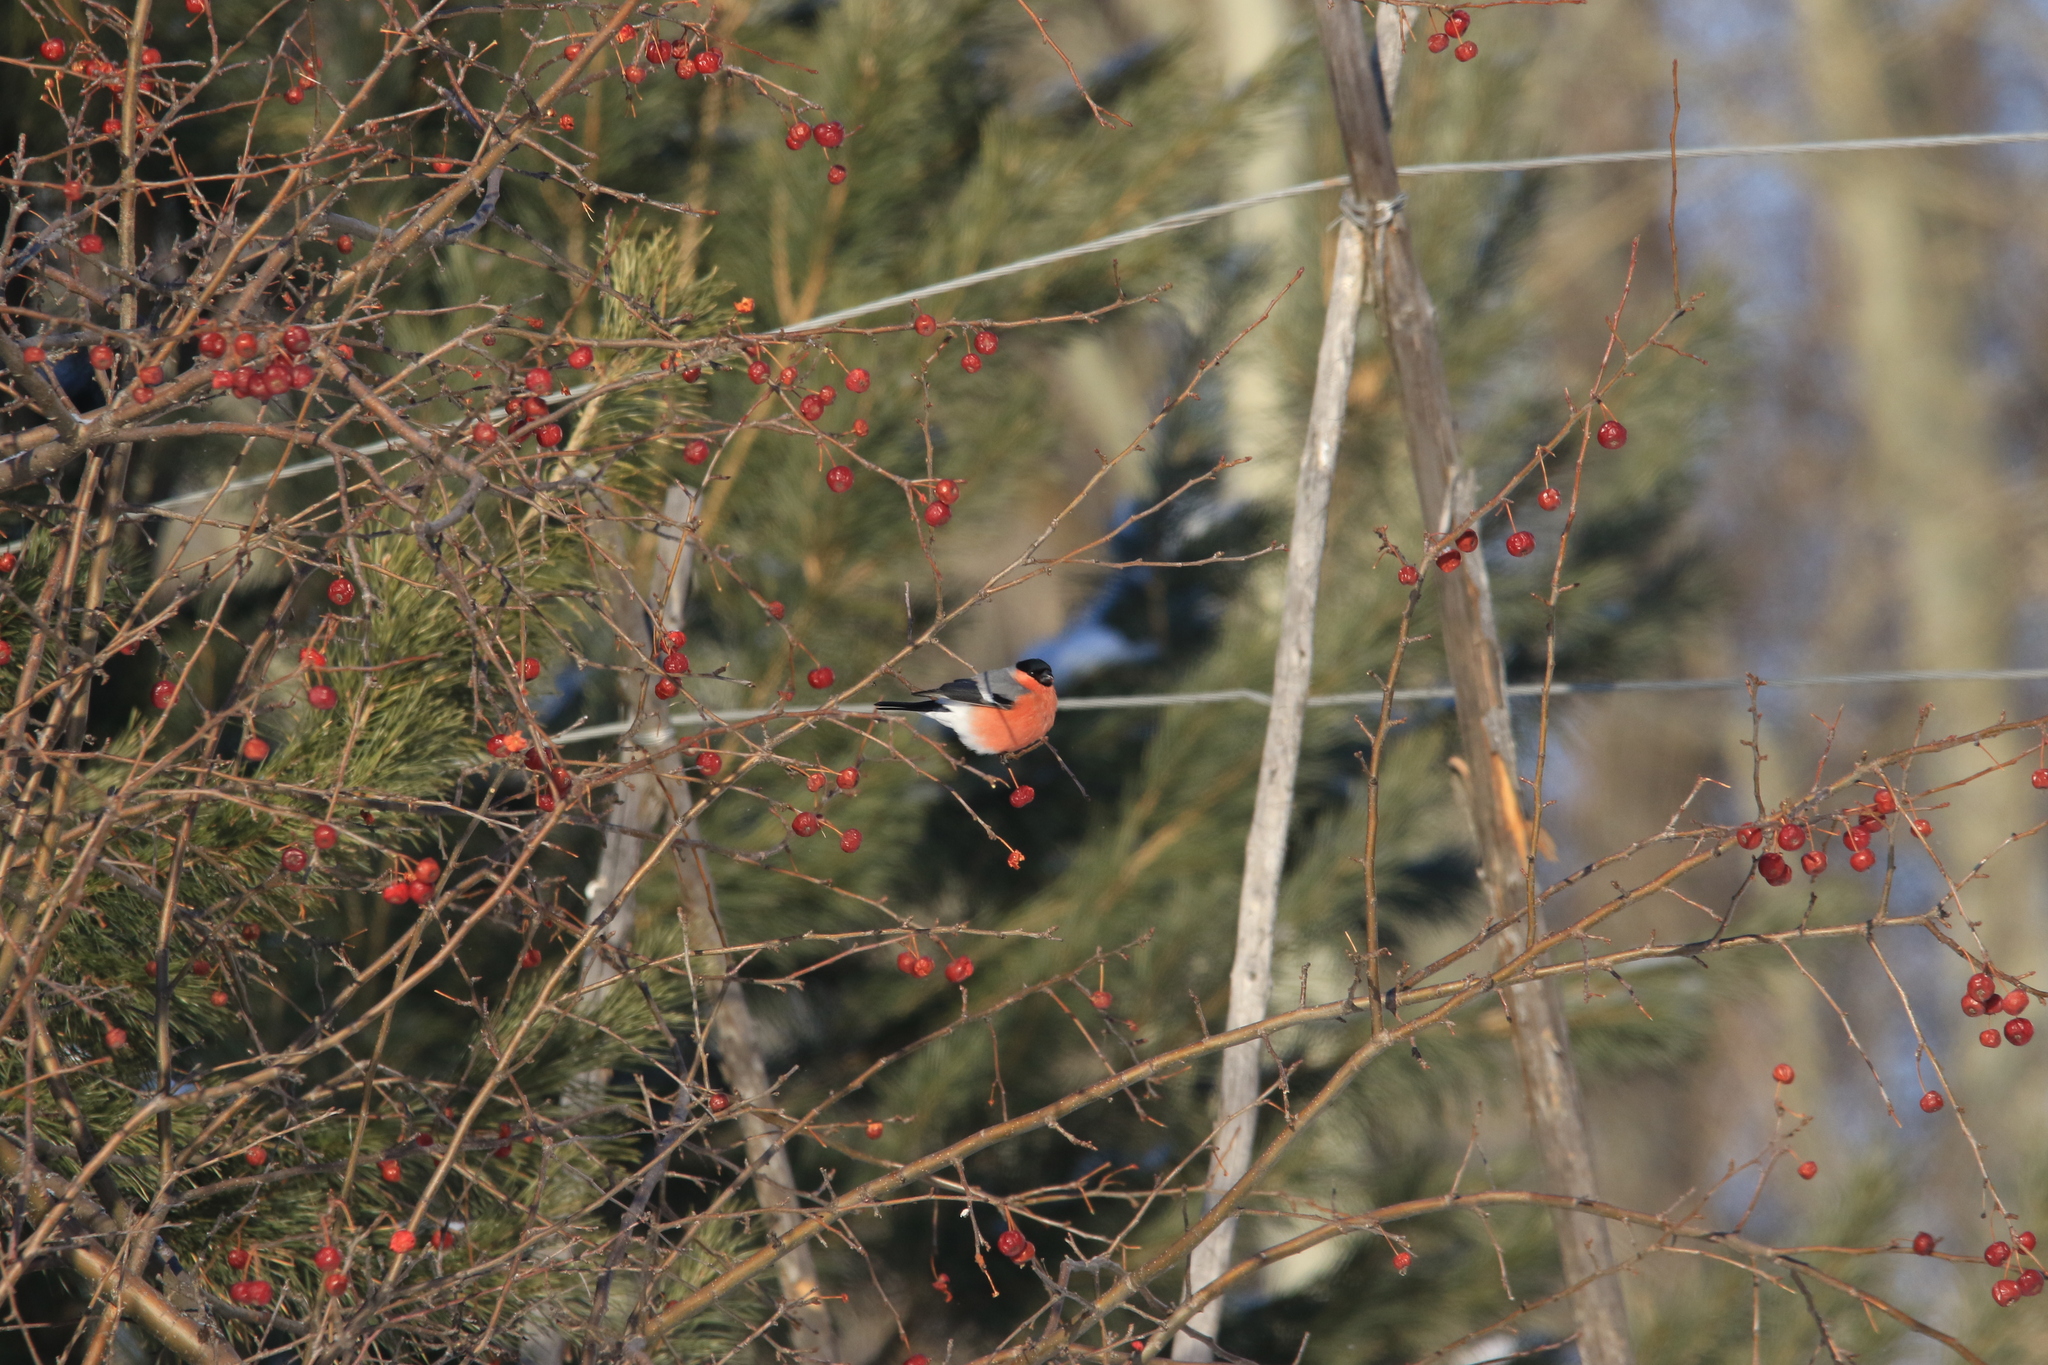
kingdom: Animalia
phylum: Chordata
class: Aves
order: Passeriformes
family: Fringillidae
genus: Pyrrhula
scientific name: Pyrrhula pyrrhula
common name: Eurasian bullfinch
